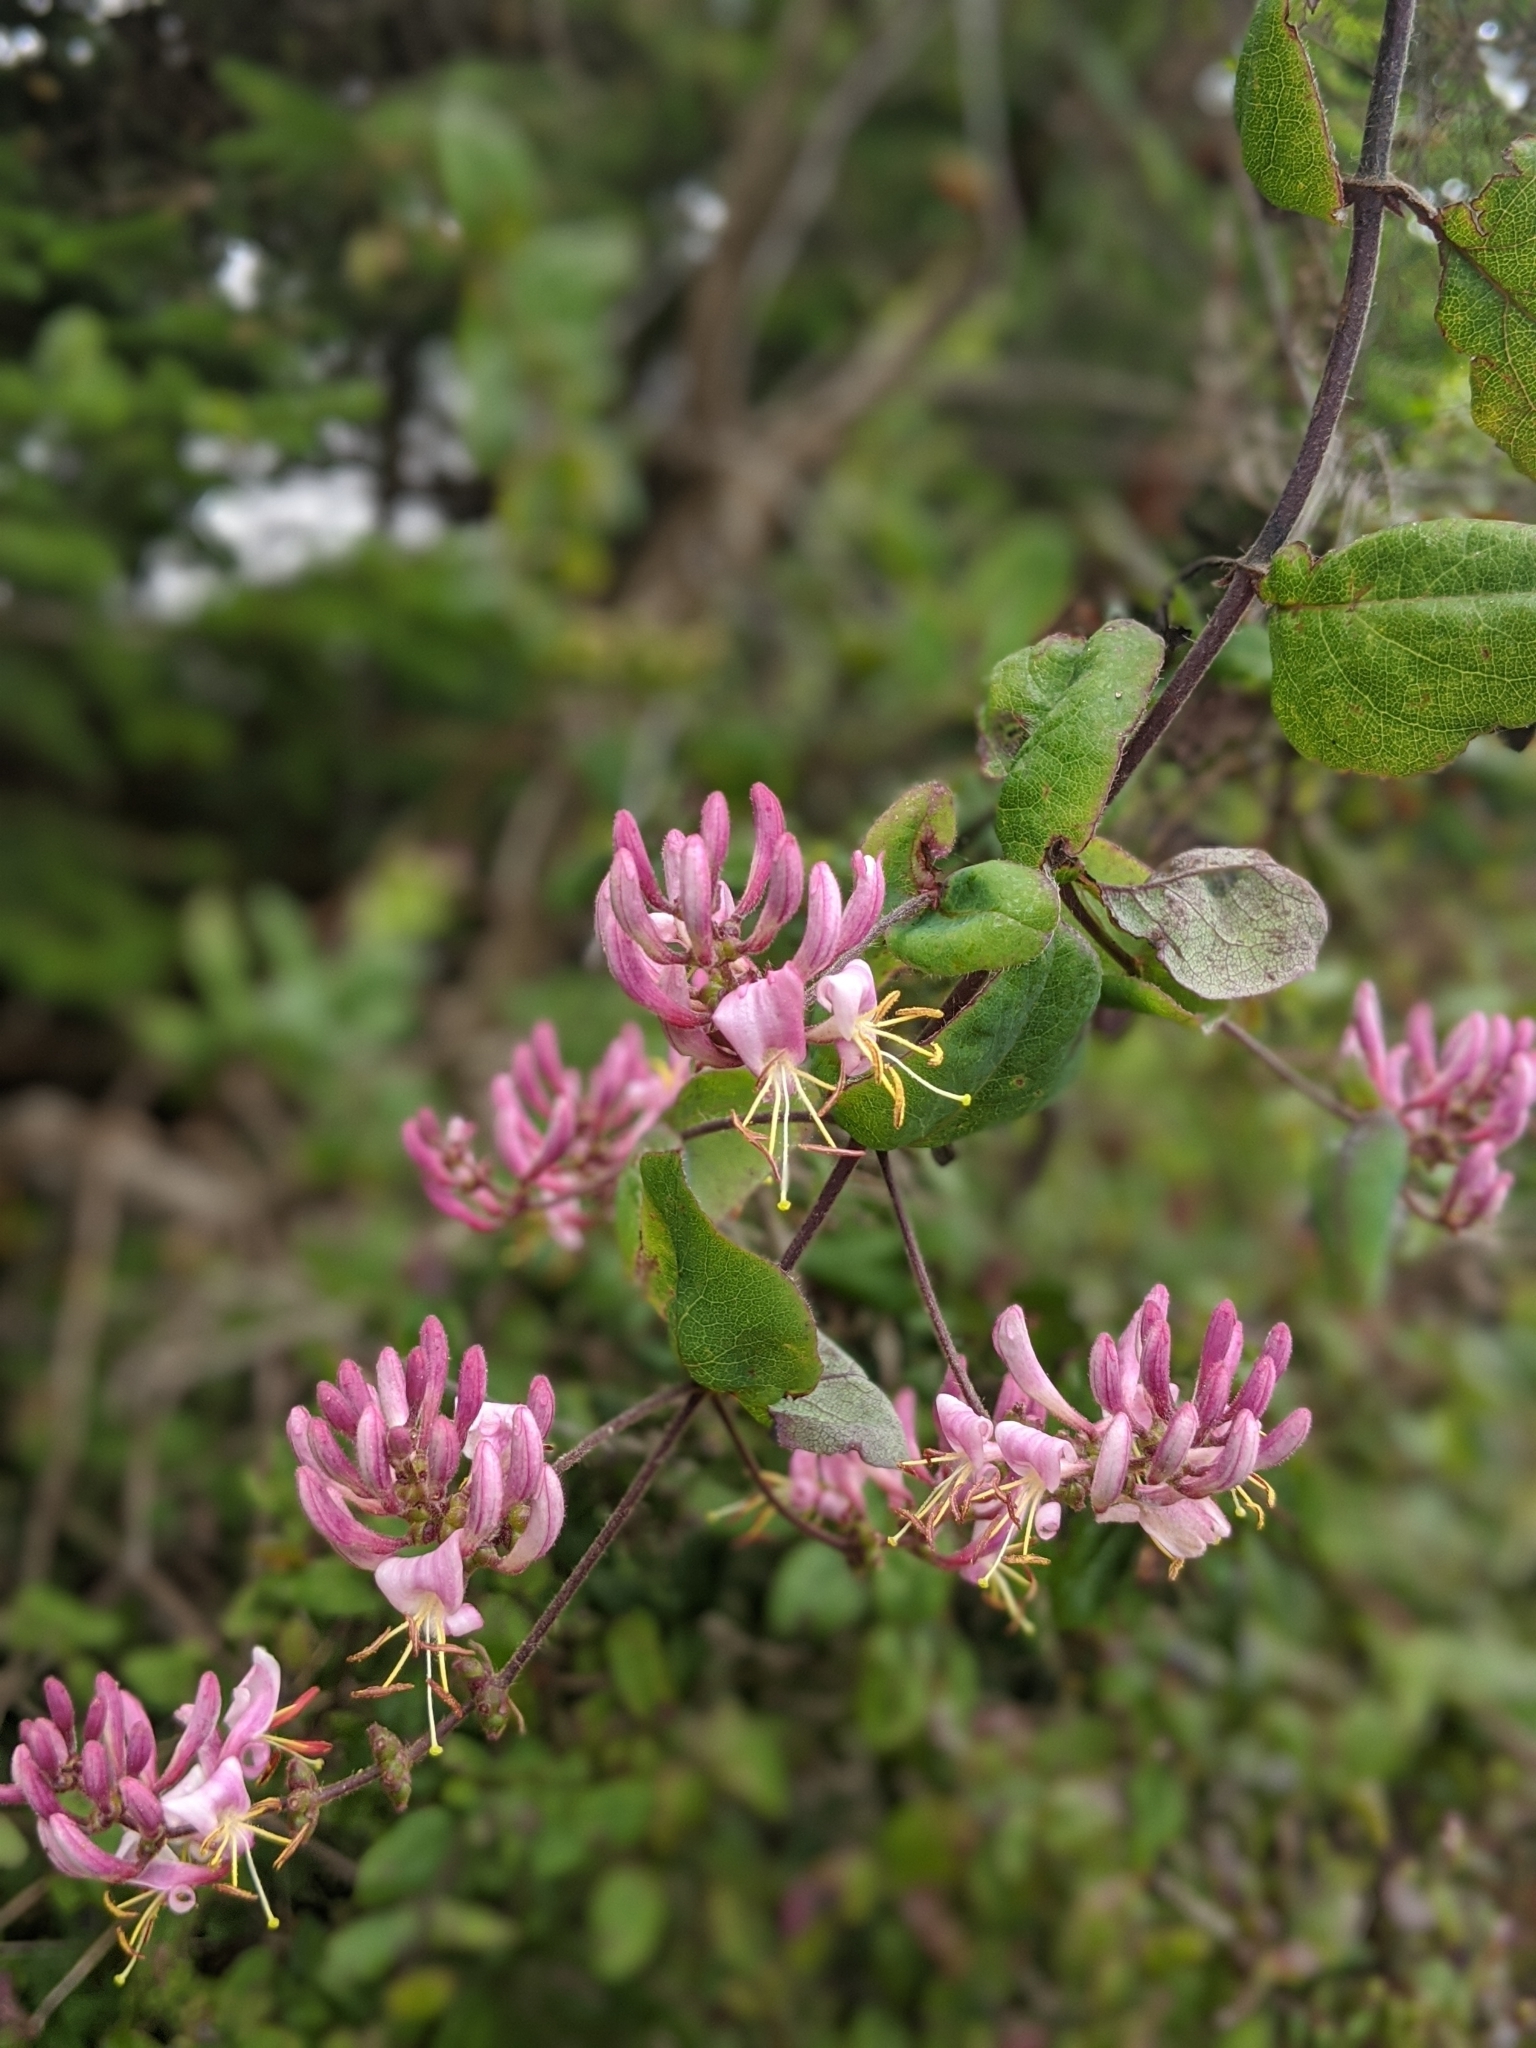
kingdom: Plantae
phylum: Tracheophyta
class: Magnoliopsida
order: Dipsacales
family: Caprifoliaceae
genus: Lonicera
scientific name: Lonicera hispidula
